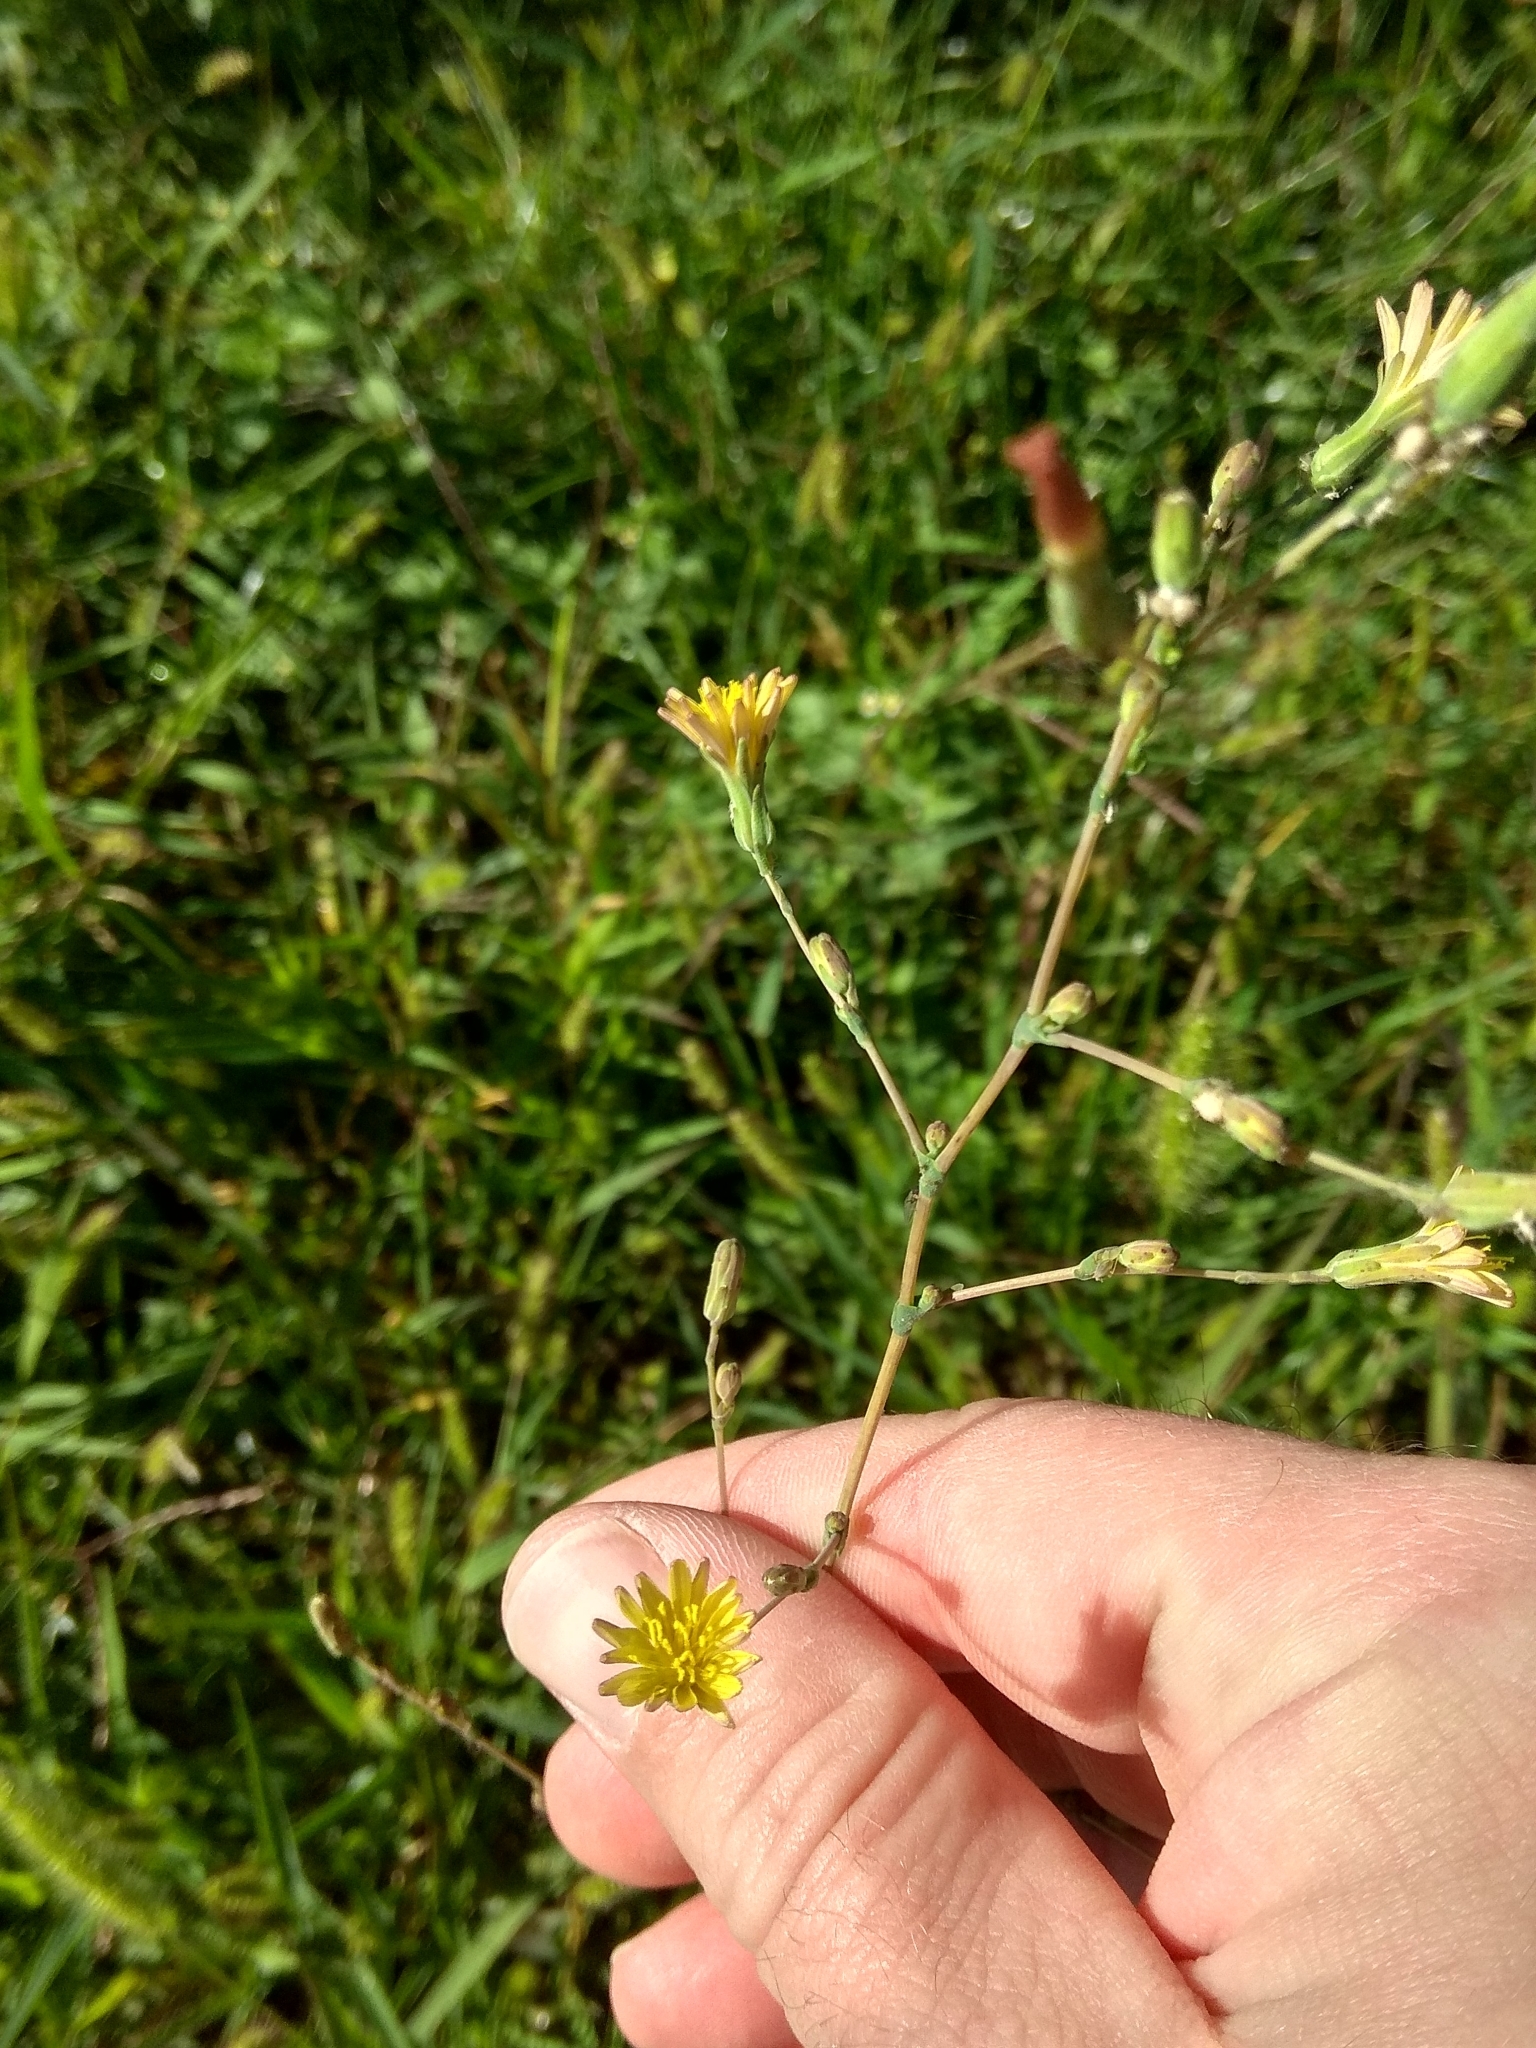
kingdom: Plantae
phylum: Tracheophyta
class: Magnoliopsida
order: Asterales
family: Asteraceae
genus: Lactuca
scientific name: Lactuca serriola
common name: Prickly lettuce
